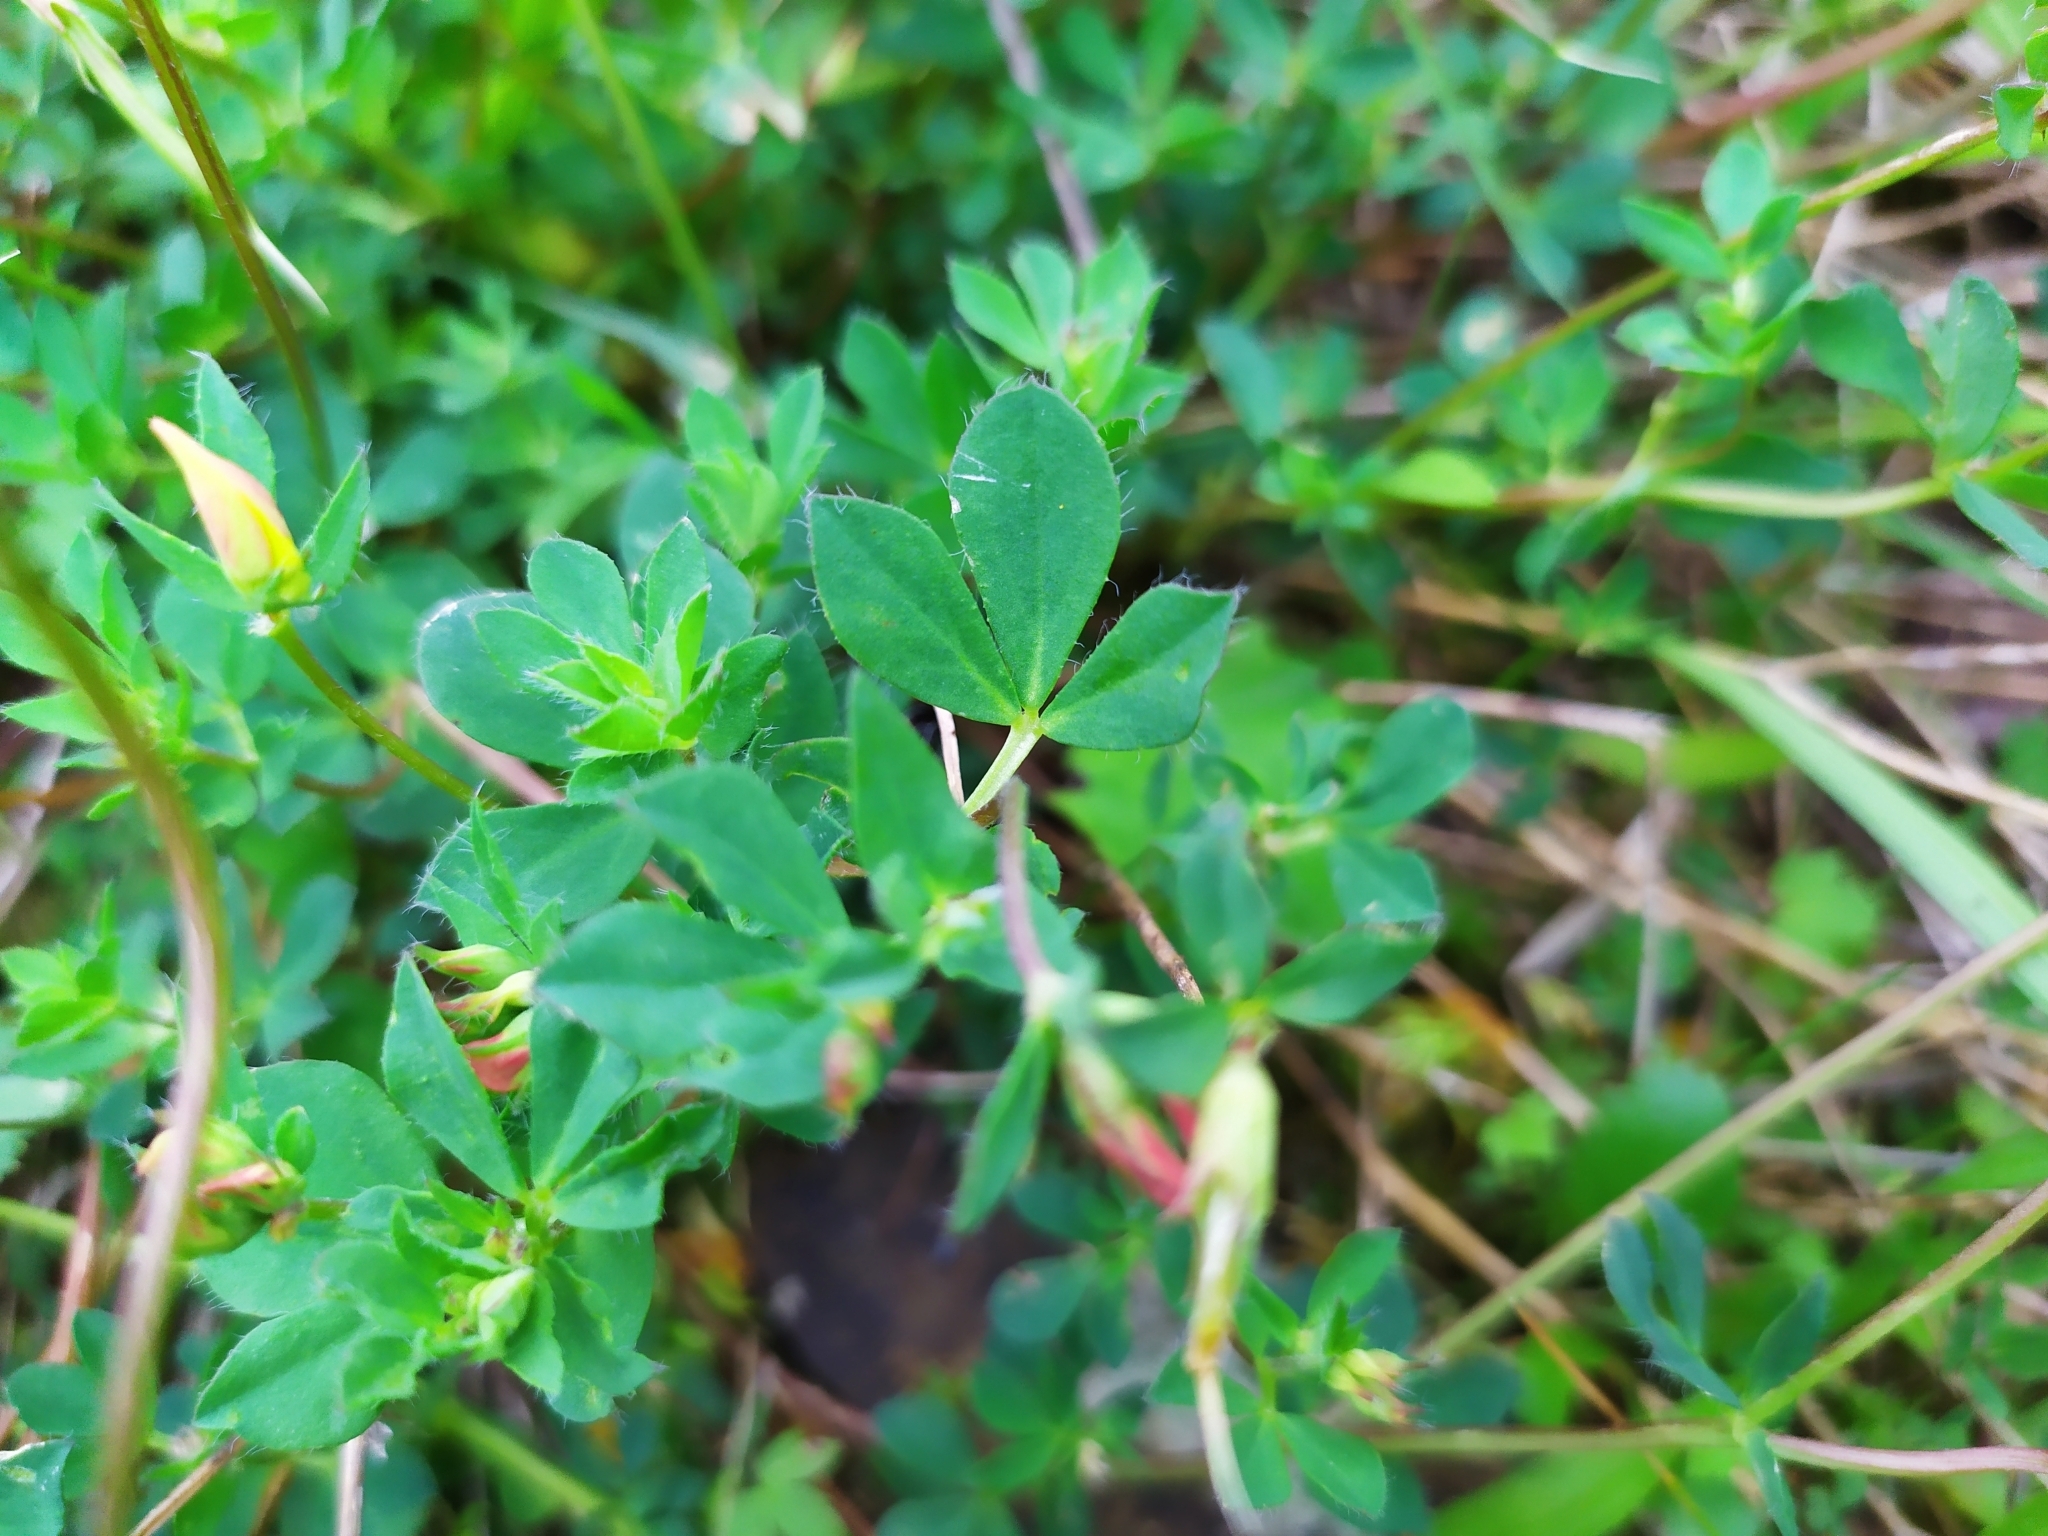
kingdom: Plantae
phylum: Tracheophyta
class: Magnoliopsida
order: Fabales
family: Fabaceae
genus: Lotus
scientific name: Lotus corniculatus
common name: Common bird's-foot-trefoil
